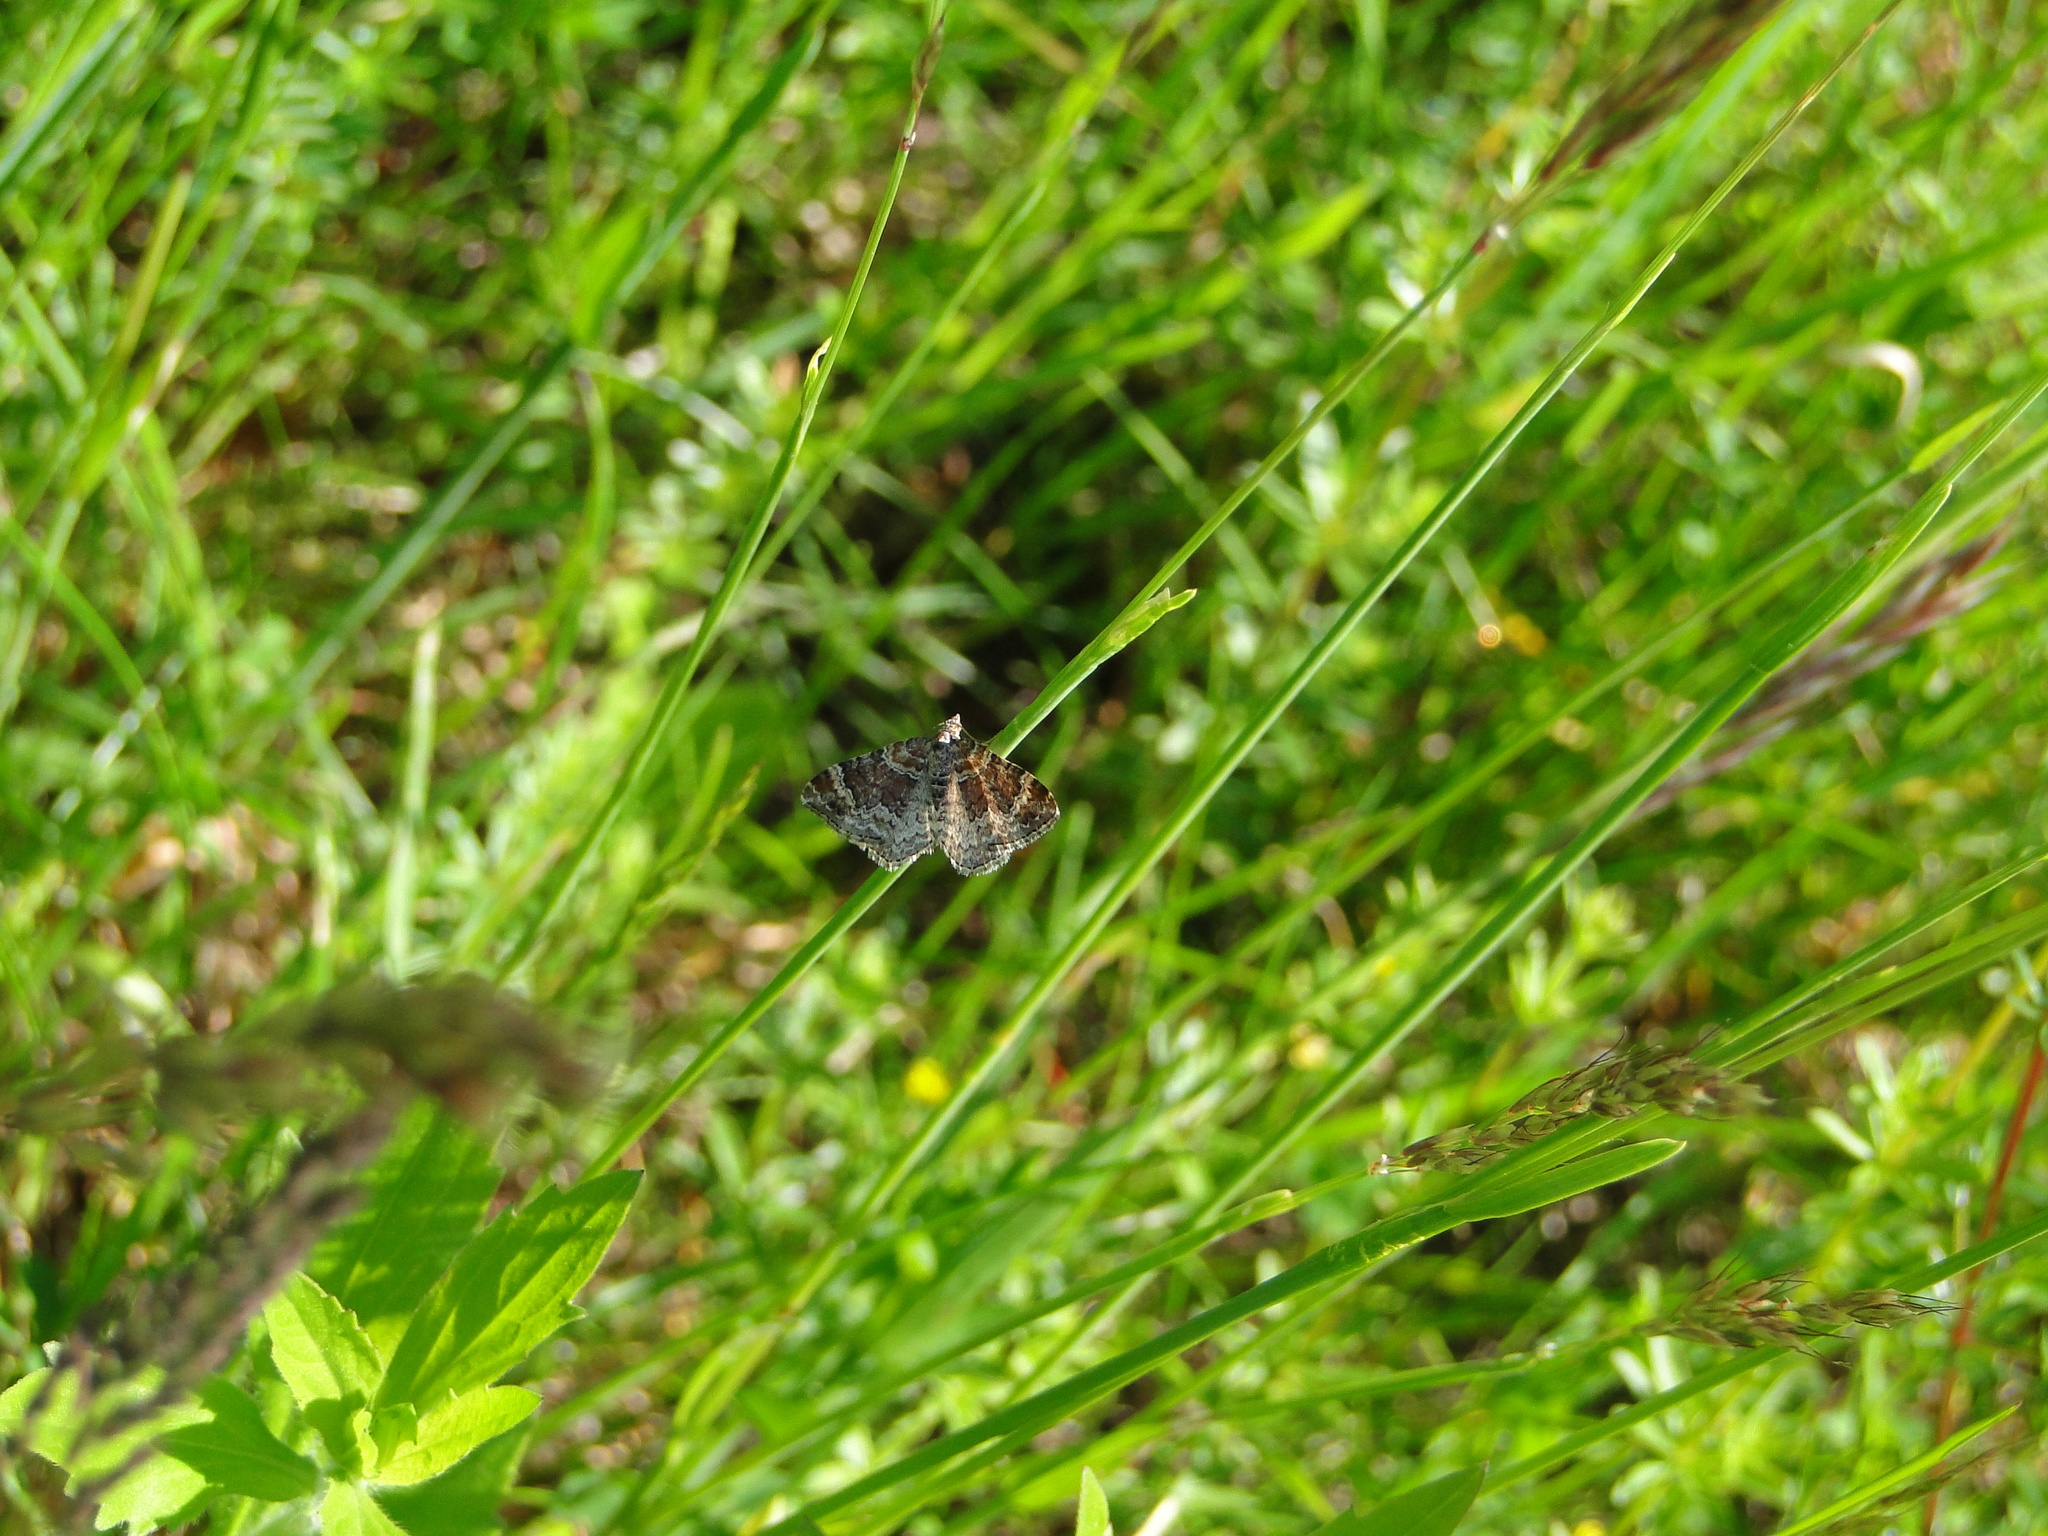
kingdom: Animalia
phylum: Arthropoda
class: Insecta
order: Lepidoptera
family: Geometridae
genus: Xanthorhoe
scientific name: Xanthorhoe spadicearia
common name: Red twin-spot carpet
